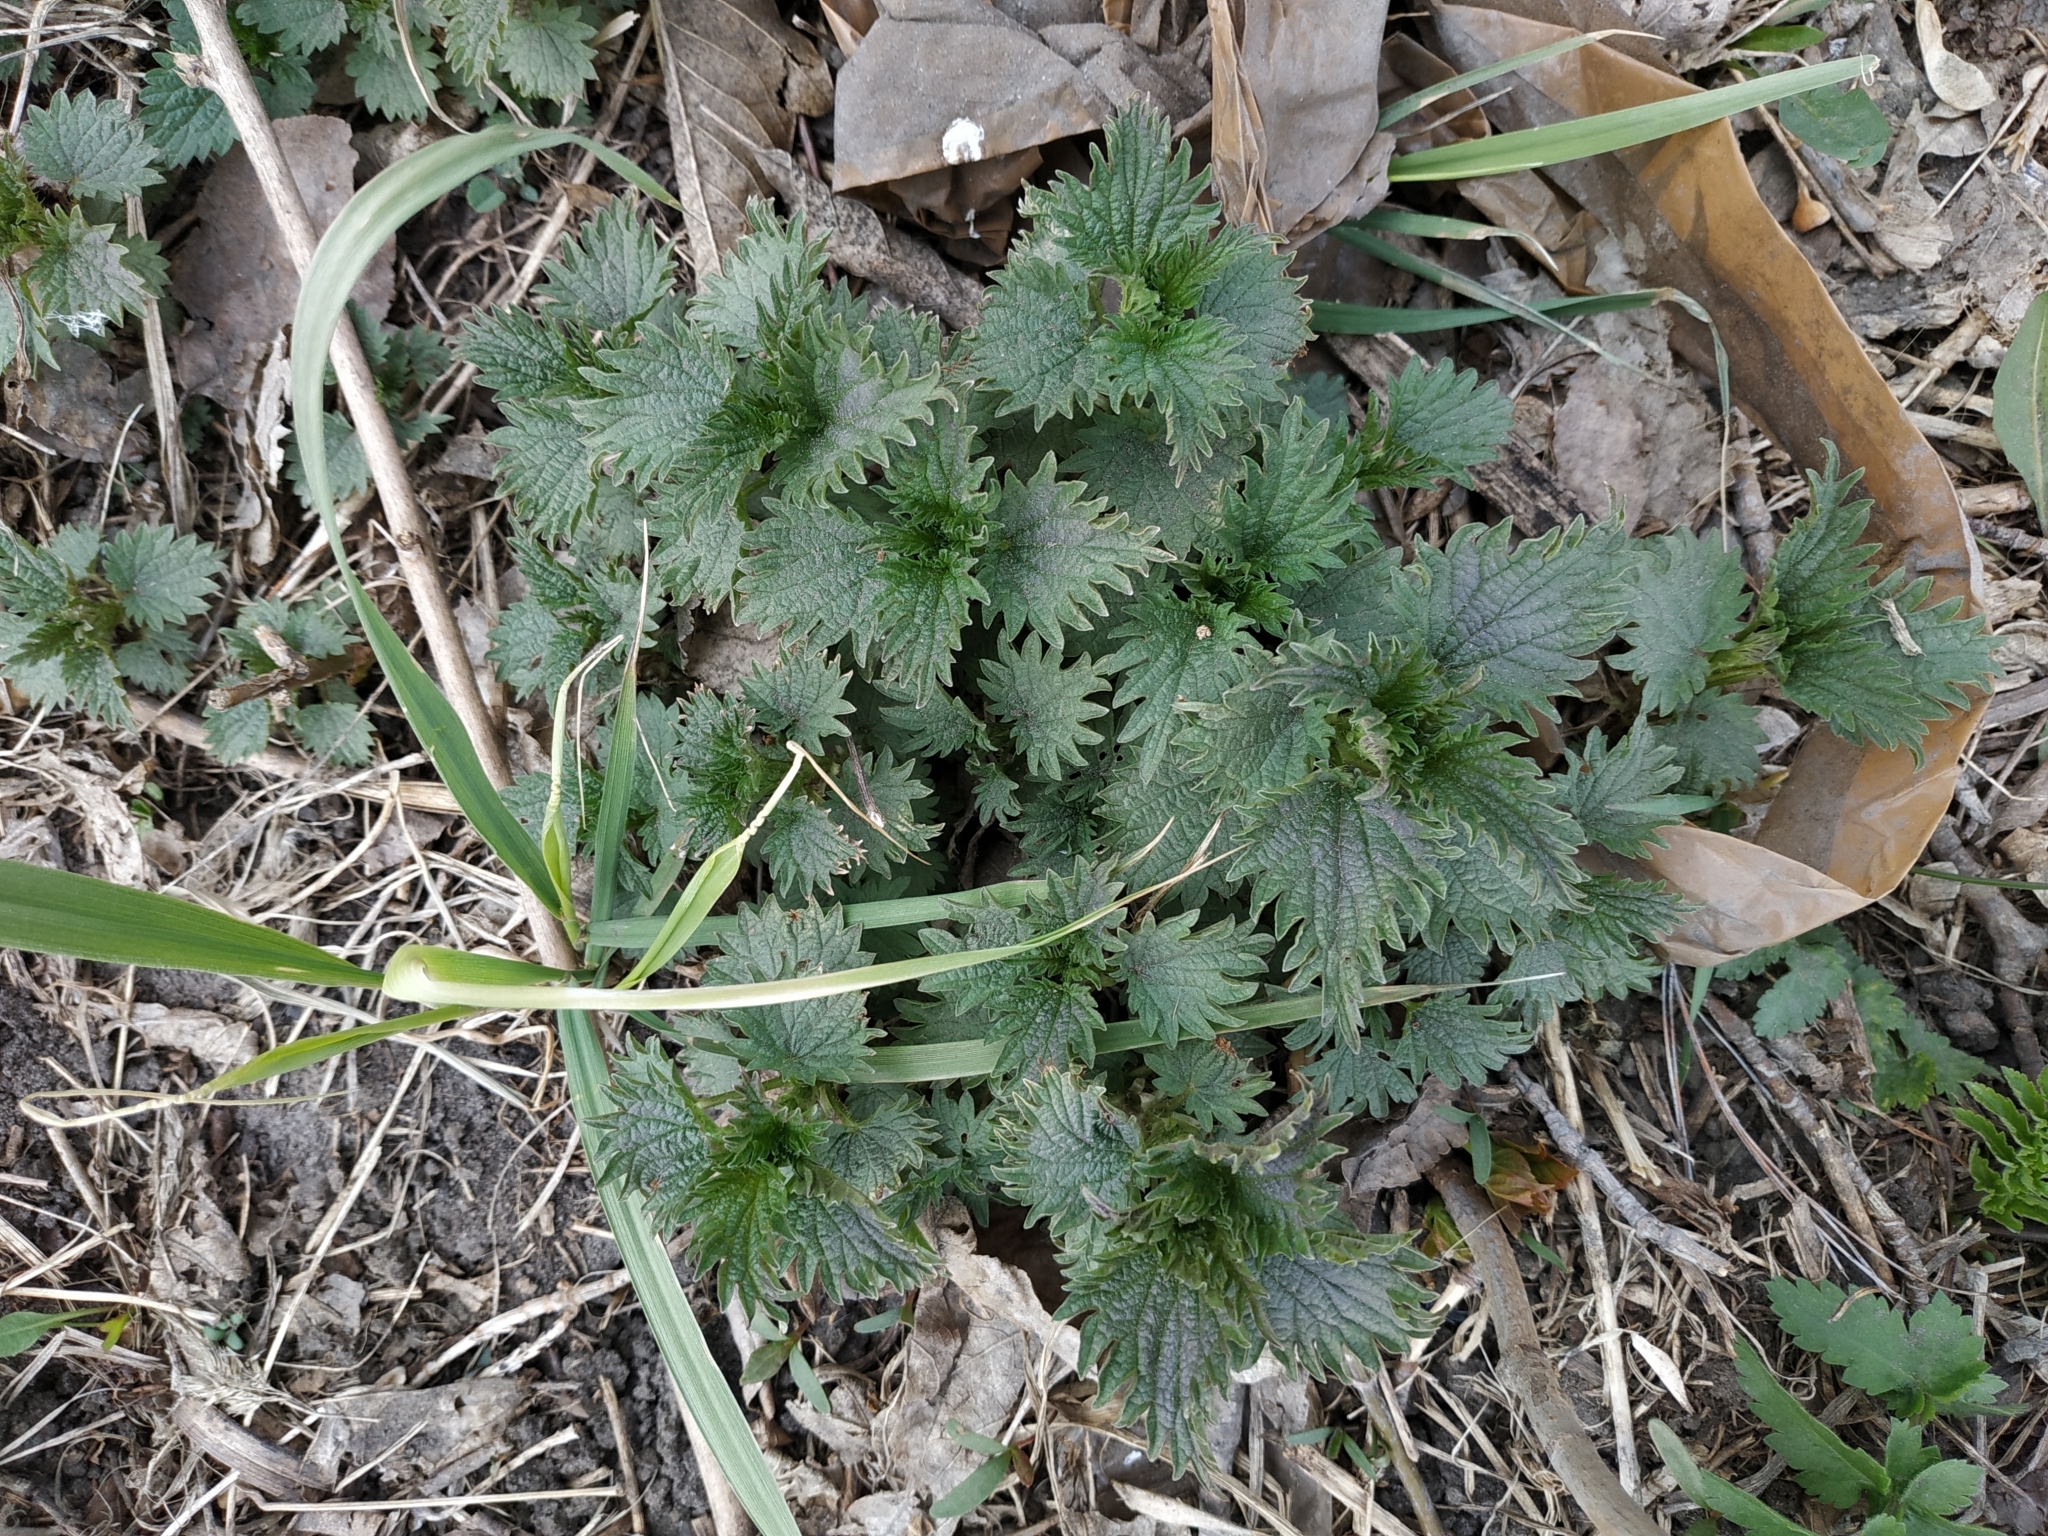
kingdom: Plantae
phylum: Tracheophyta
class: Magnoliopsida
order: Rosales
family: Urticaceae
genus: Urtica
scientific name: Urtica dioica
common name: Common nettle
